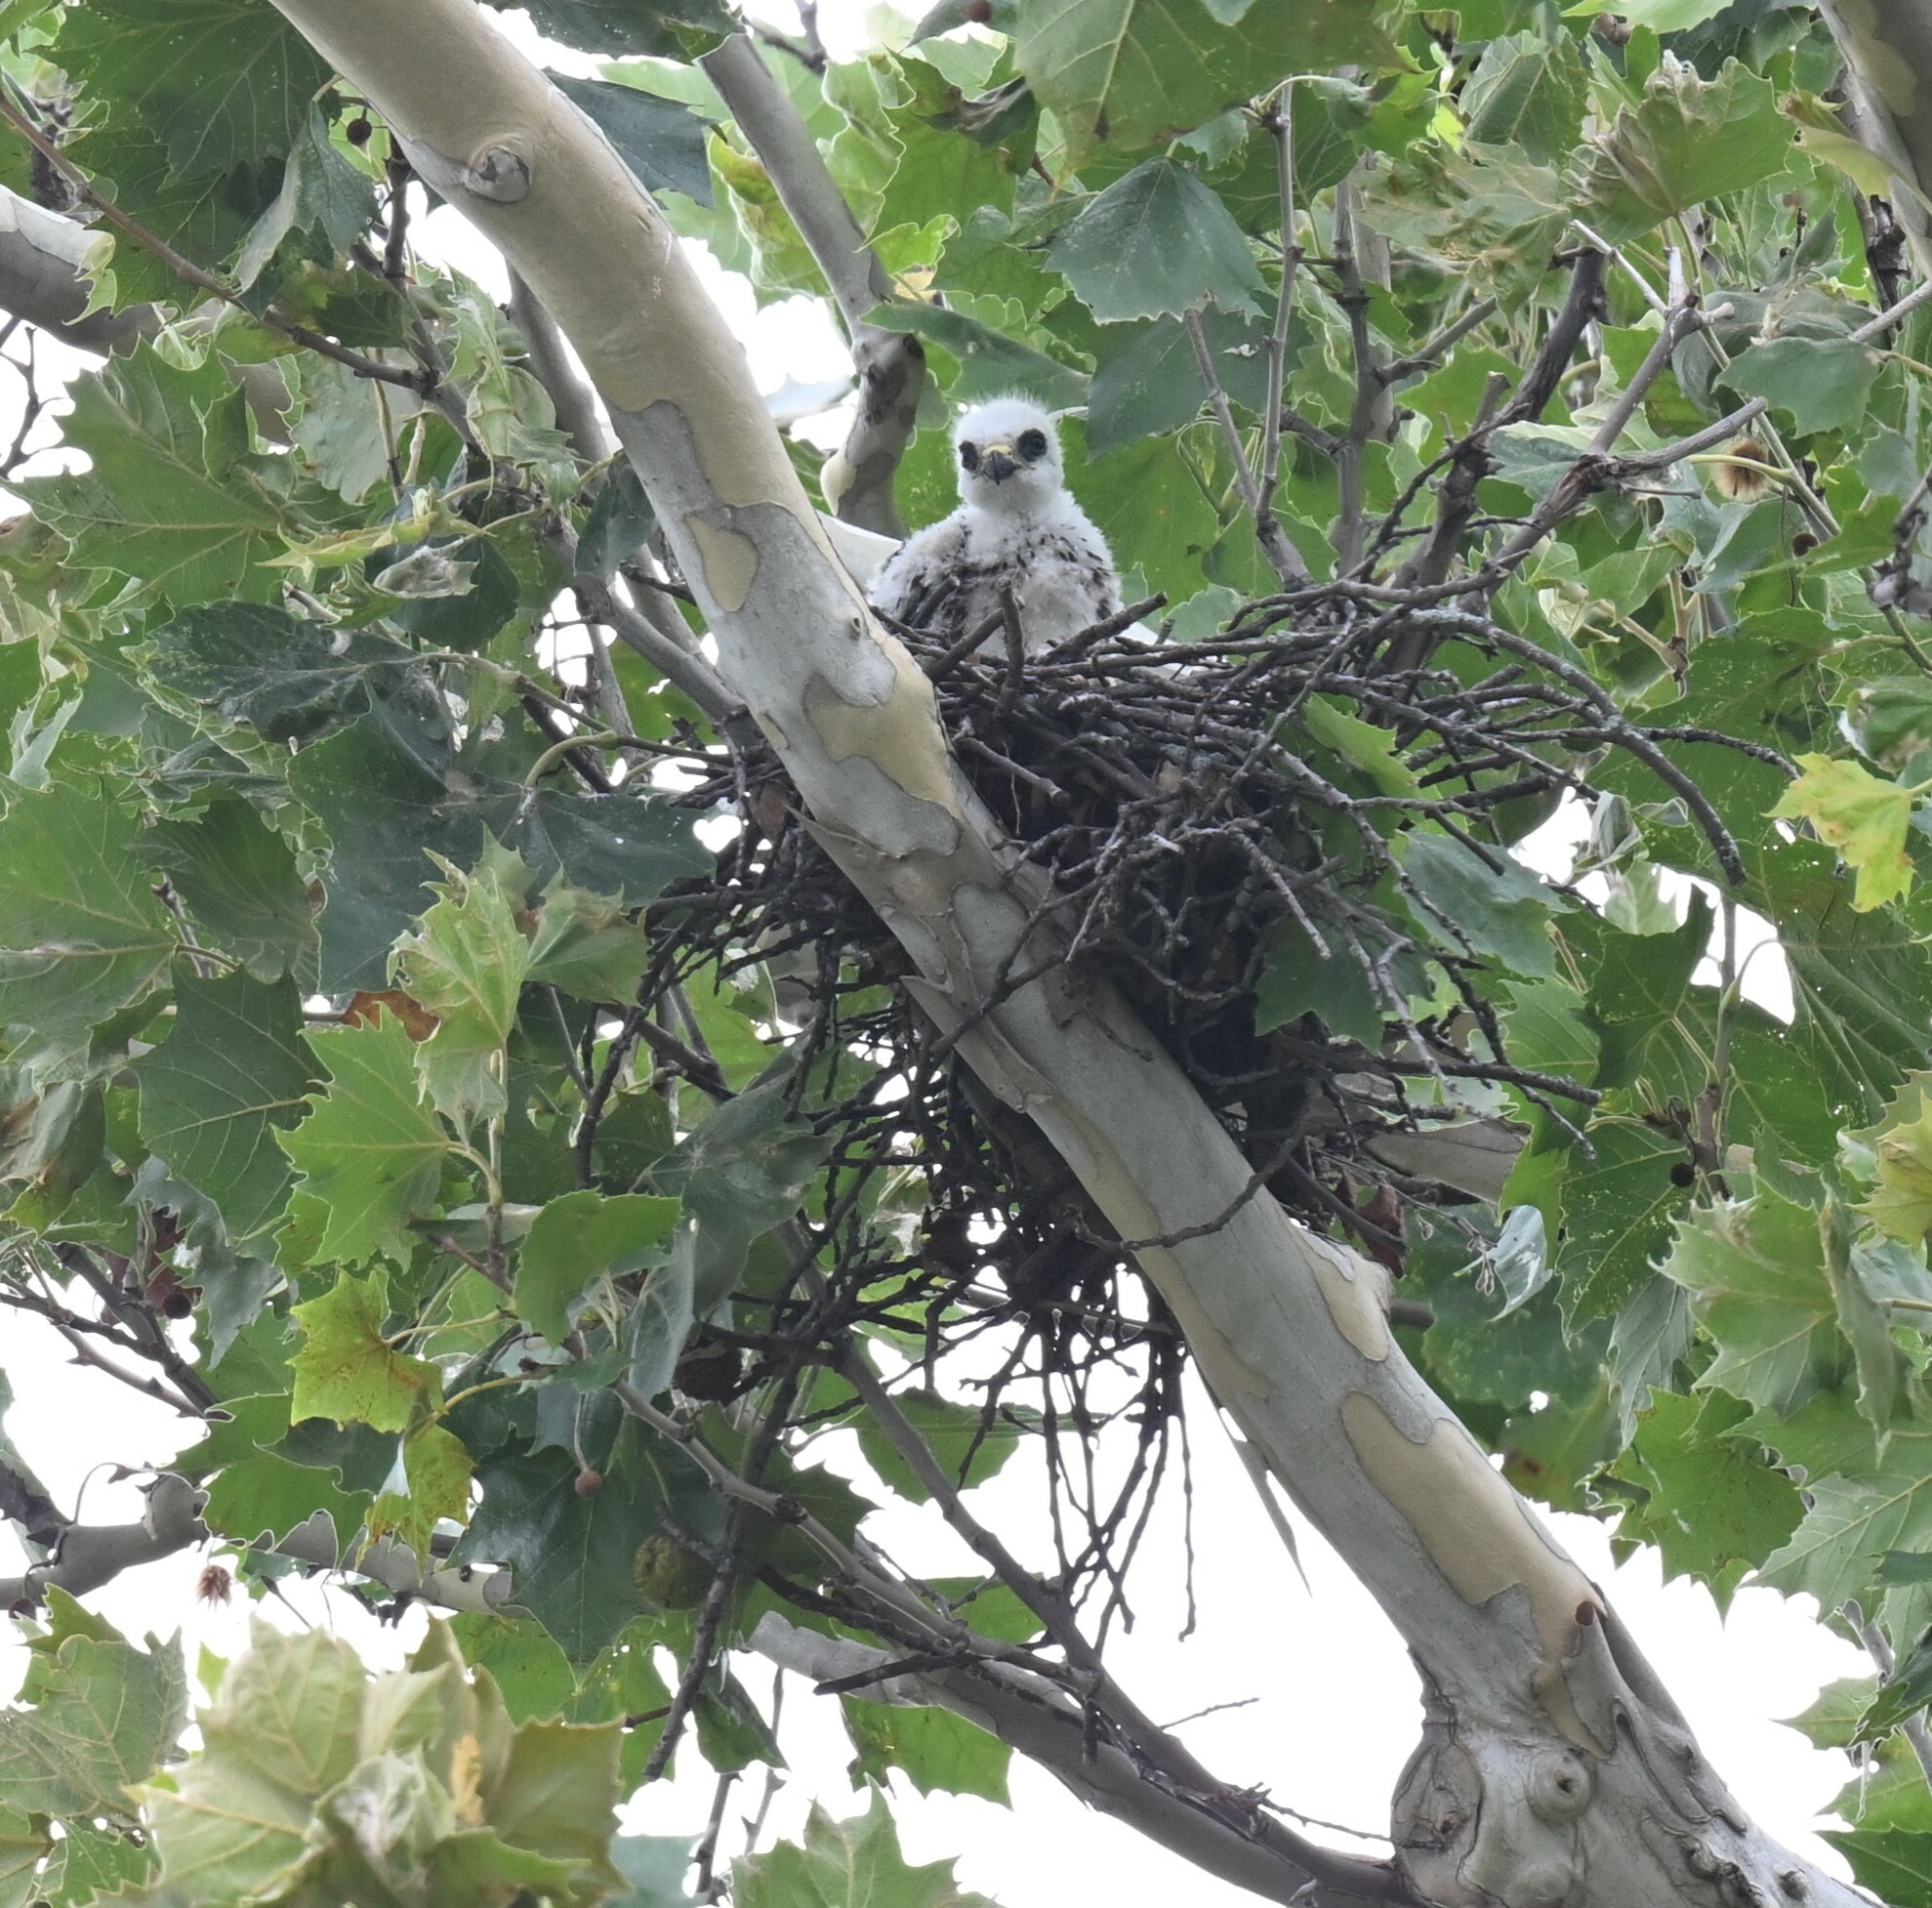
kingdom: Animalia
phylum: Chordata
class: Aves
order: Accipitriformes
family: Accipitridae
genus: Ictinia
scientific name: Ictinia mississippiensis
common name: Mississippi kite
